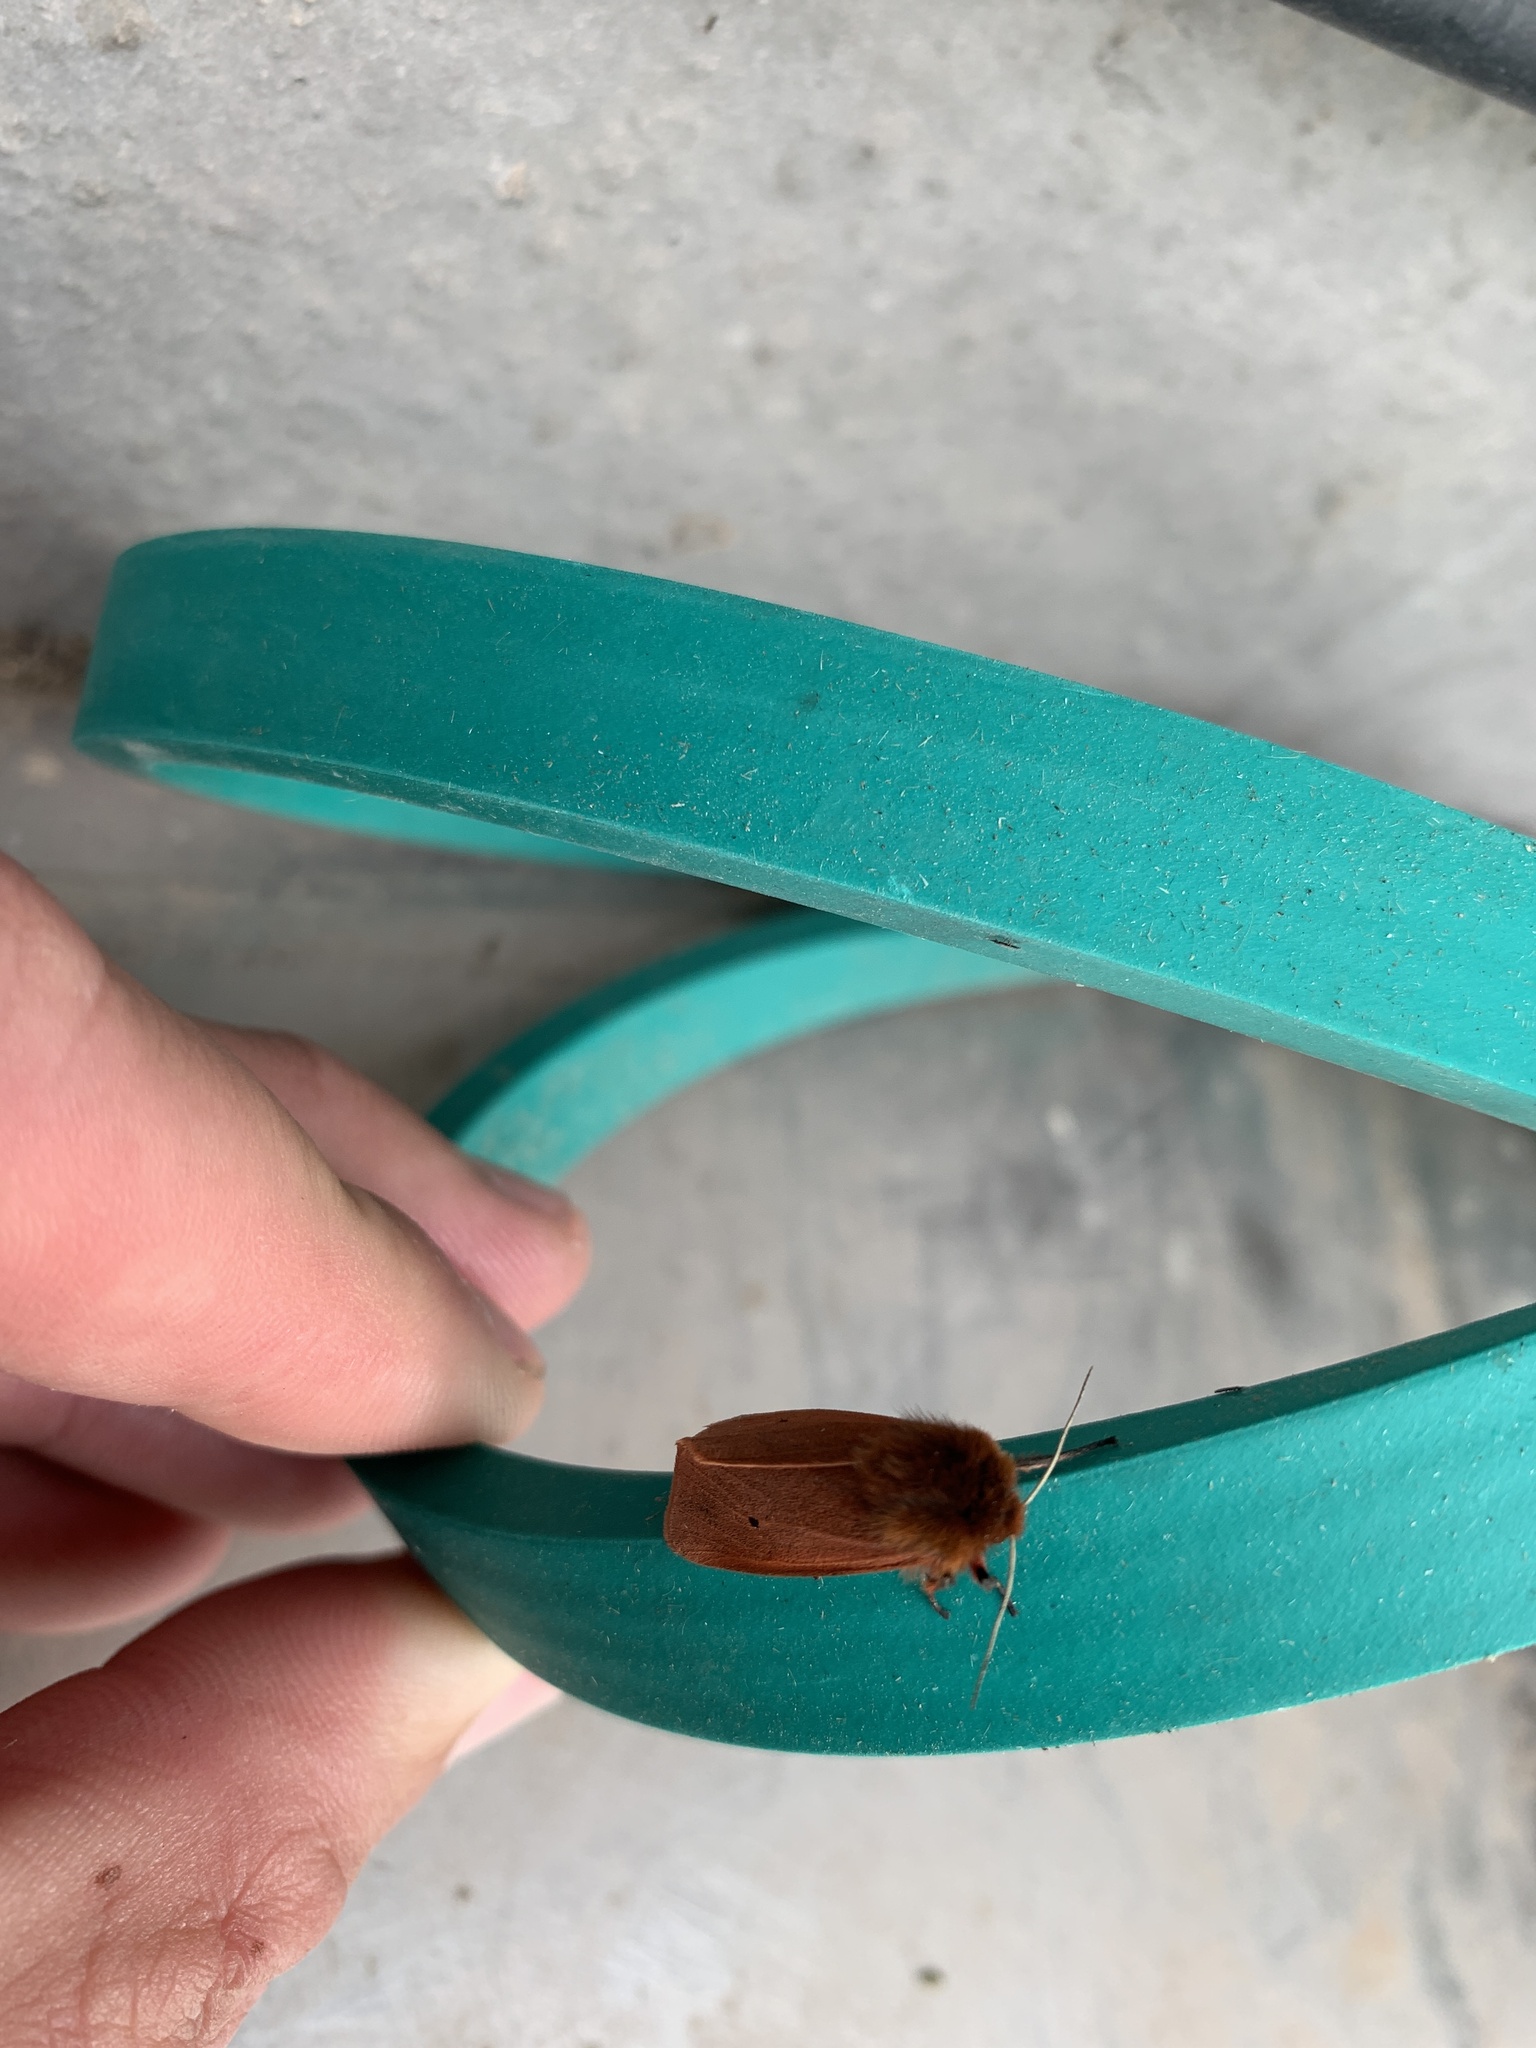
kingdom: Animalia
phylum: Arthropoda
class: Insecta
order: Lepidoptera
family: Erebidae
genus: Phragmatobia
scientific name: Phragmatobia fuliginosa
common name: Ruby tiger
